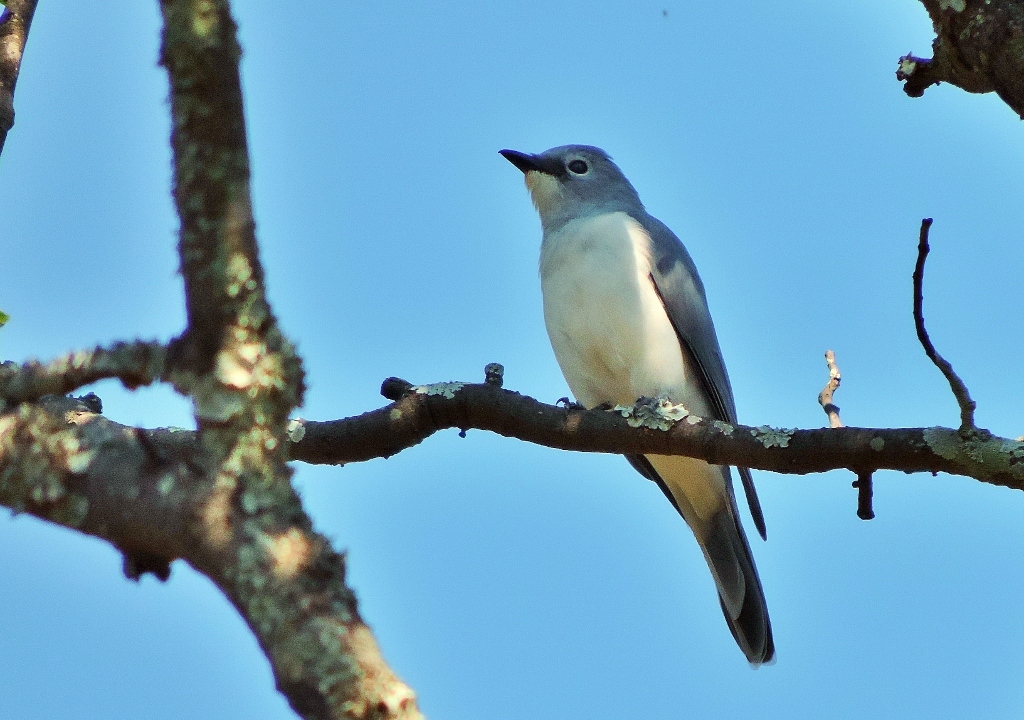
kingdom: Animalia
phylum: Chordata
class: Aves
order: Passeriformes
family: Campephagidae
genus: Coracina
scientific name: Coracina pectoralis
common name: White-breasted cuckooshrike
